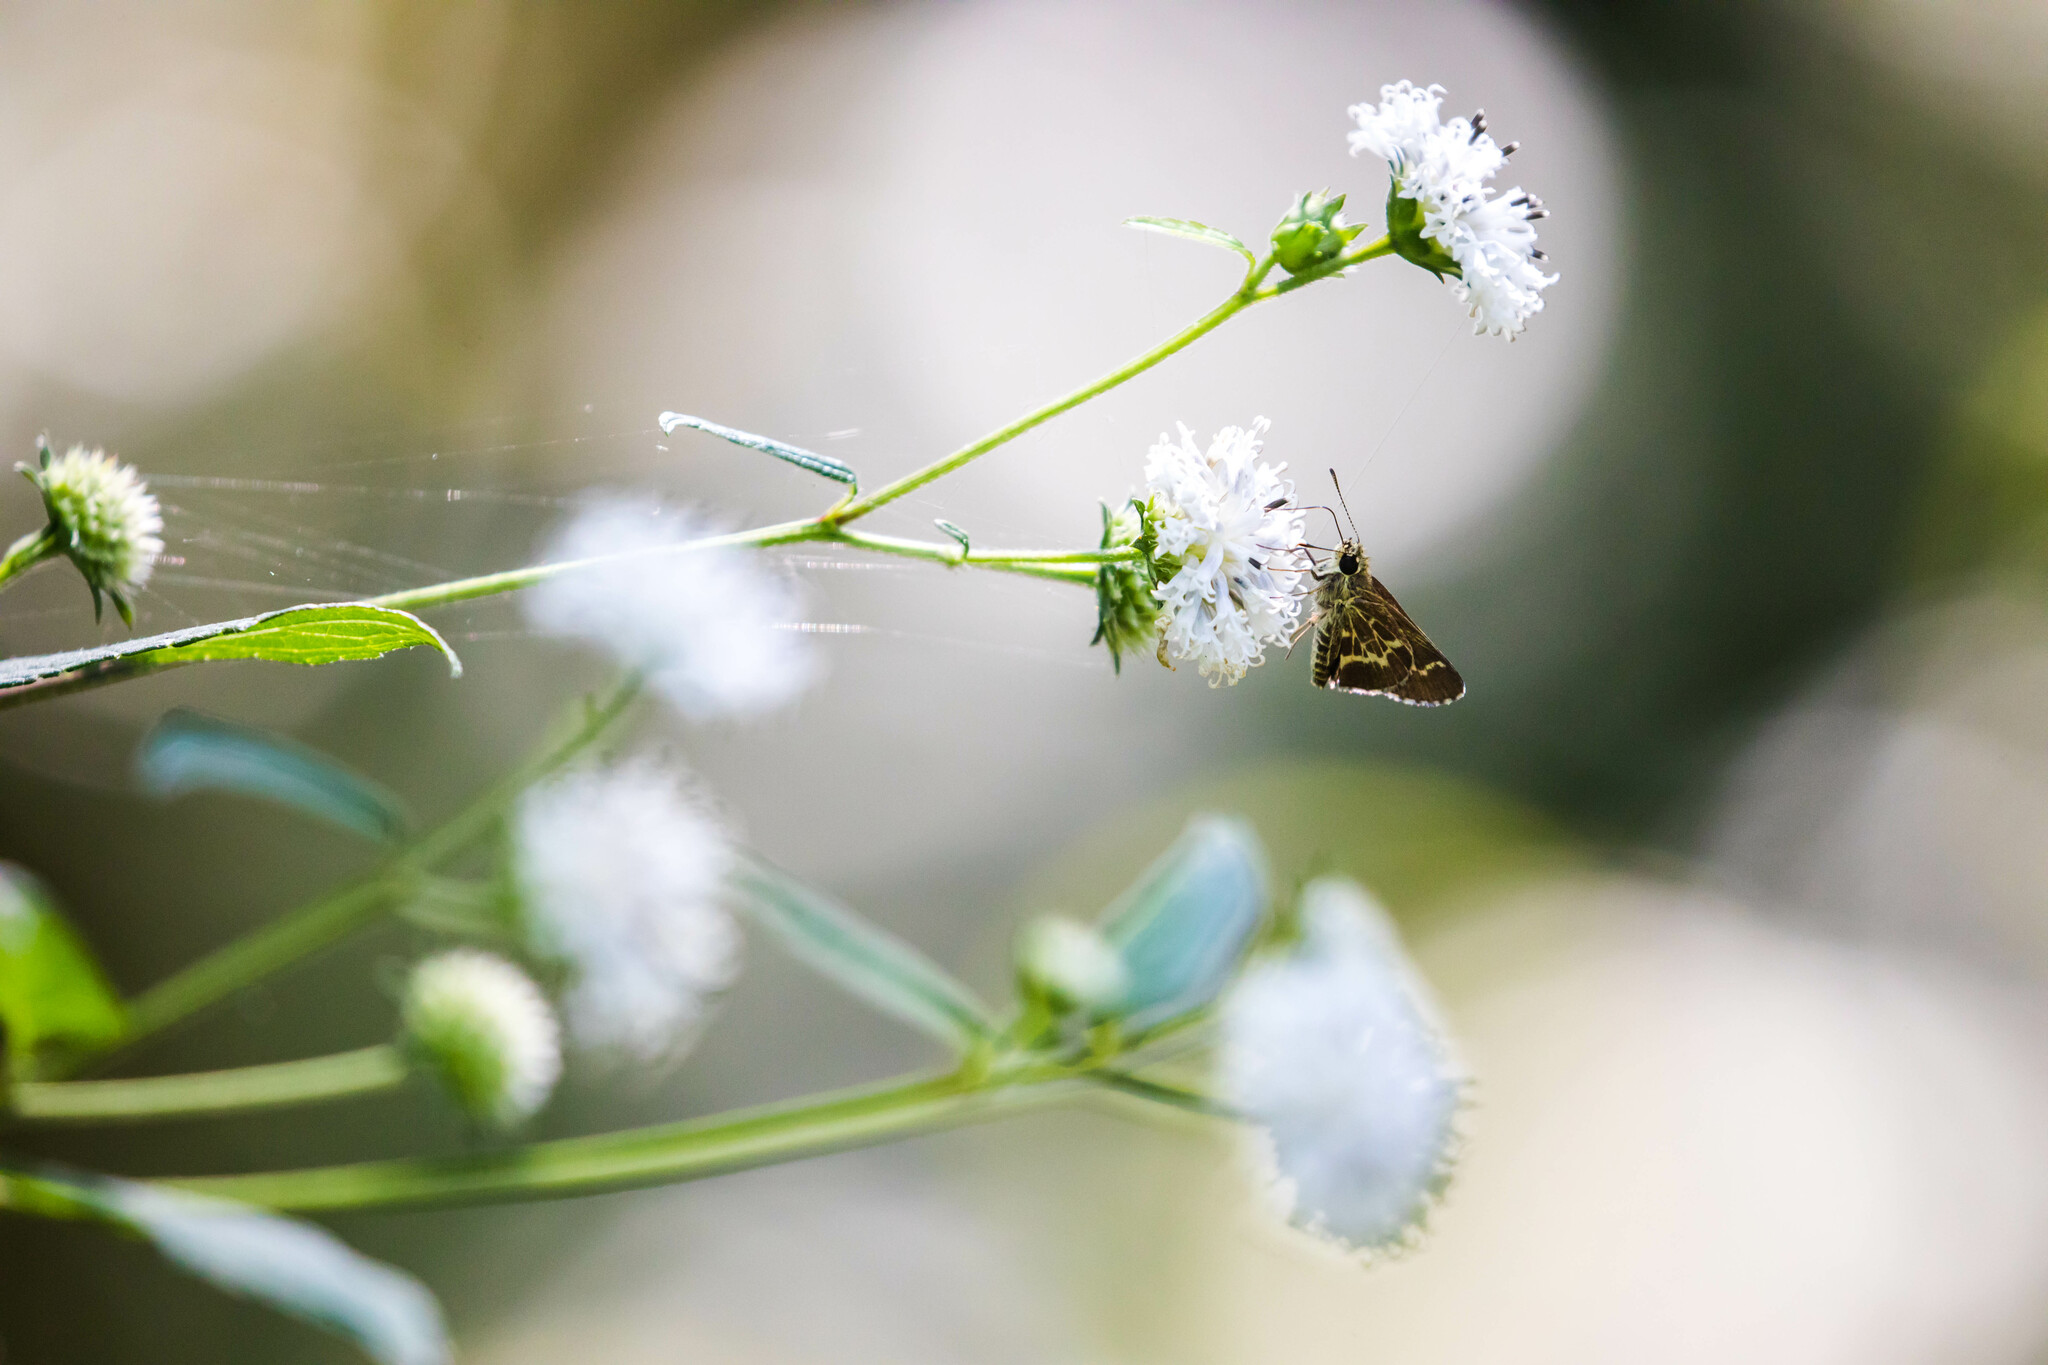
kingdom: Animalia
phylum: Arthropoda
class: Insecta
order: Lepidoptera
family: Hesperiidae
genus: Mastor
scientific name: Mastor aesculapius
